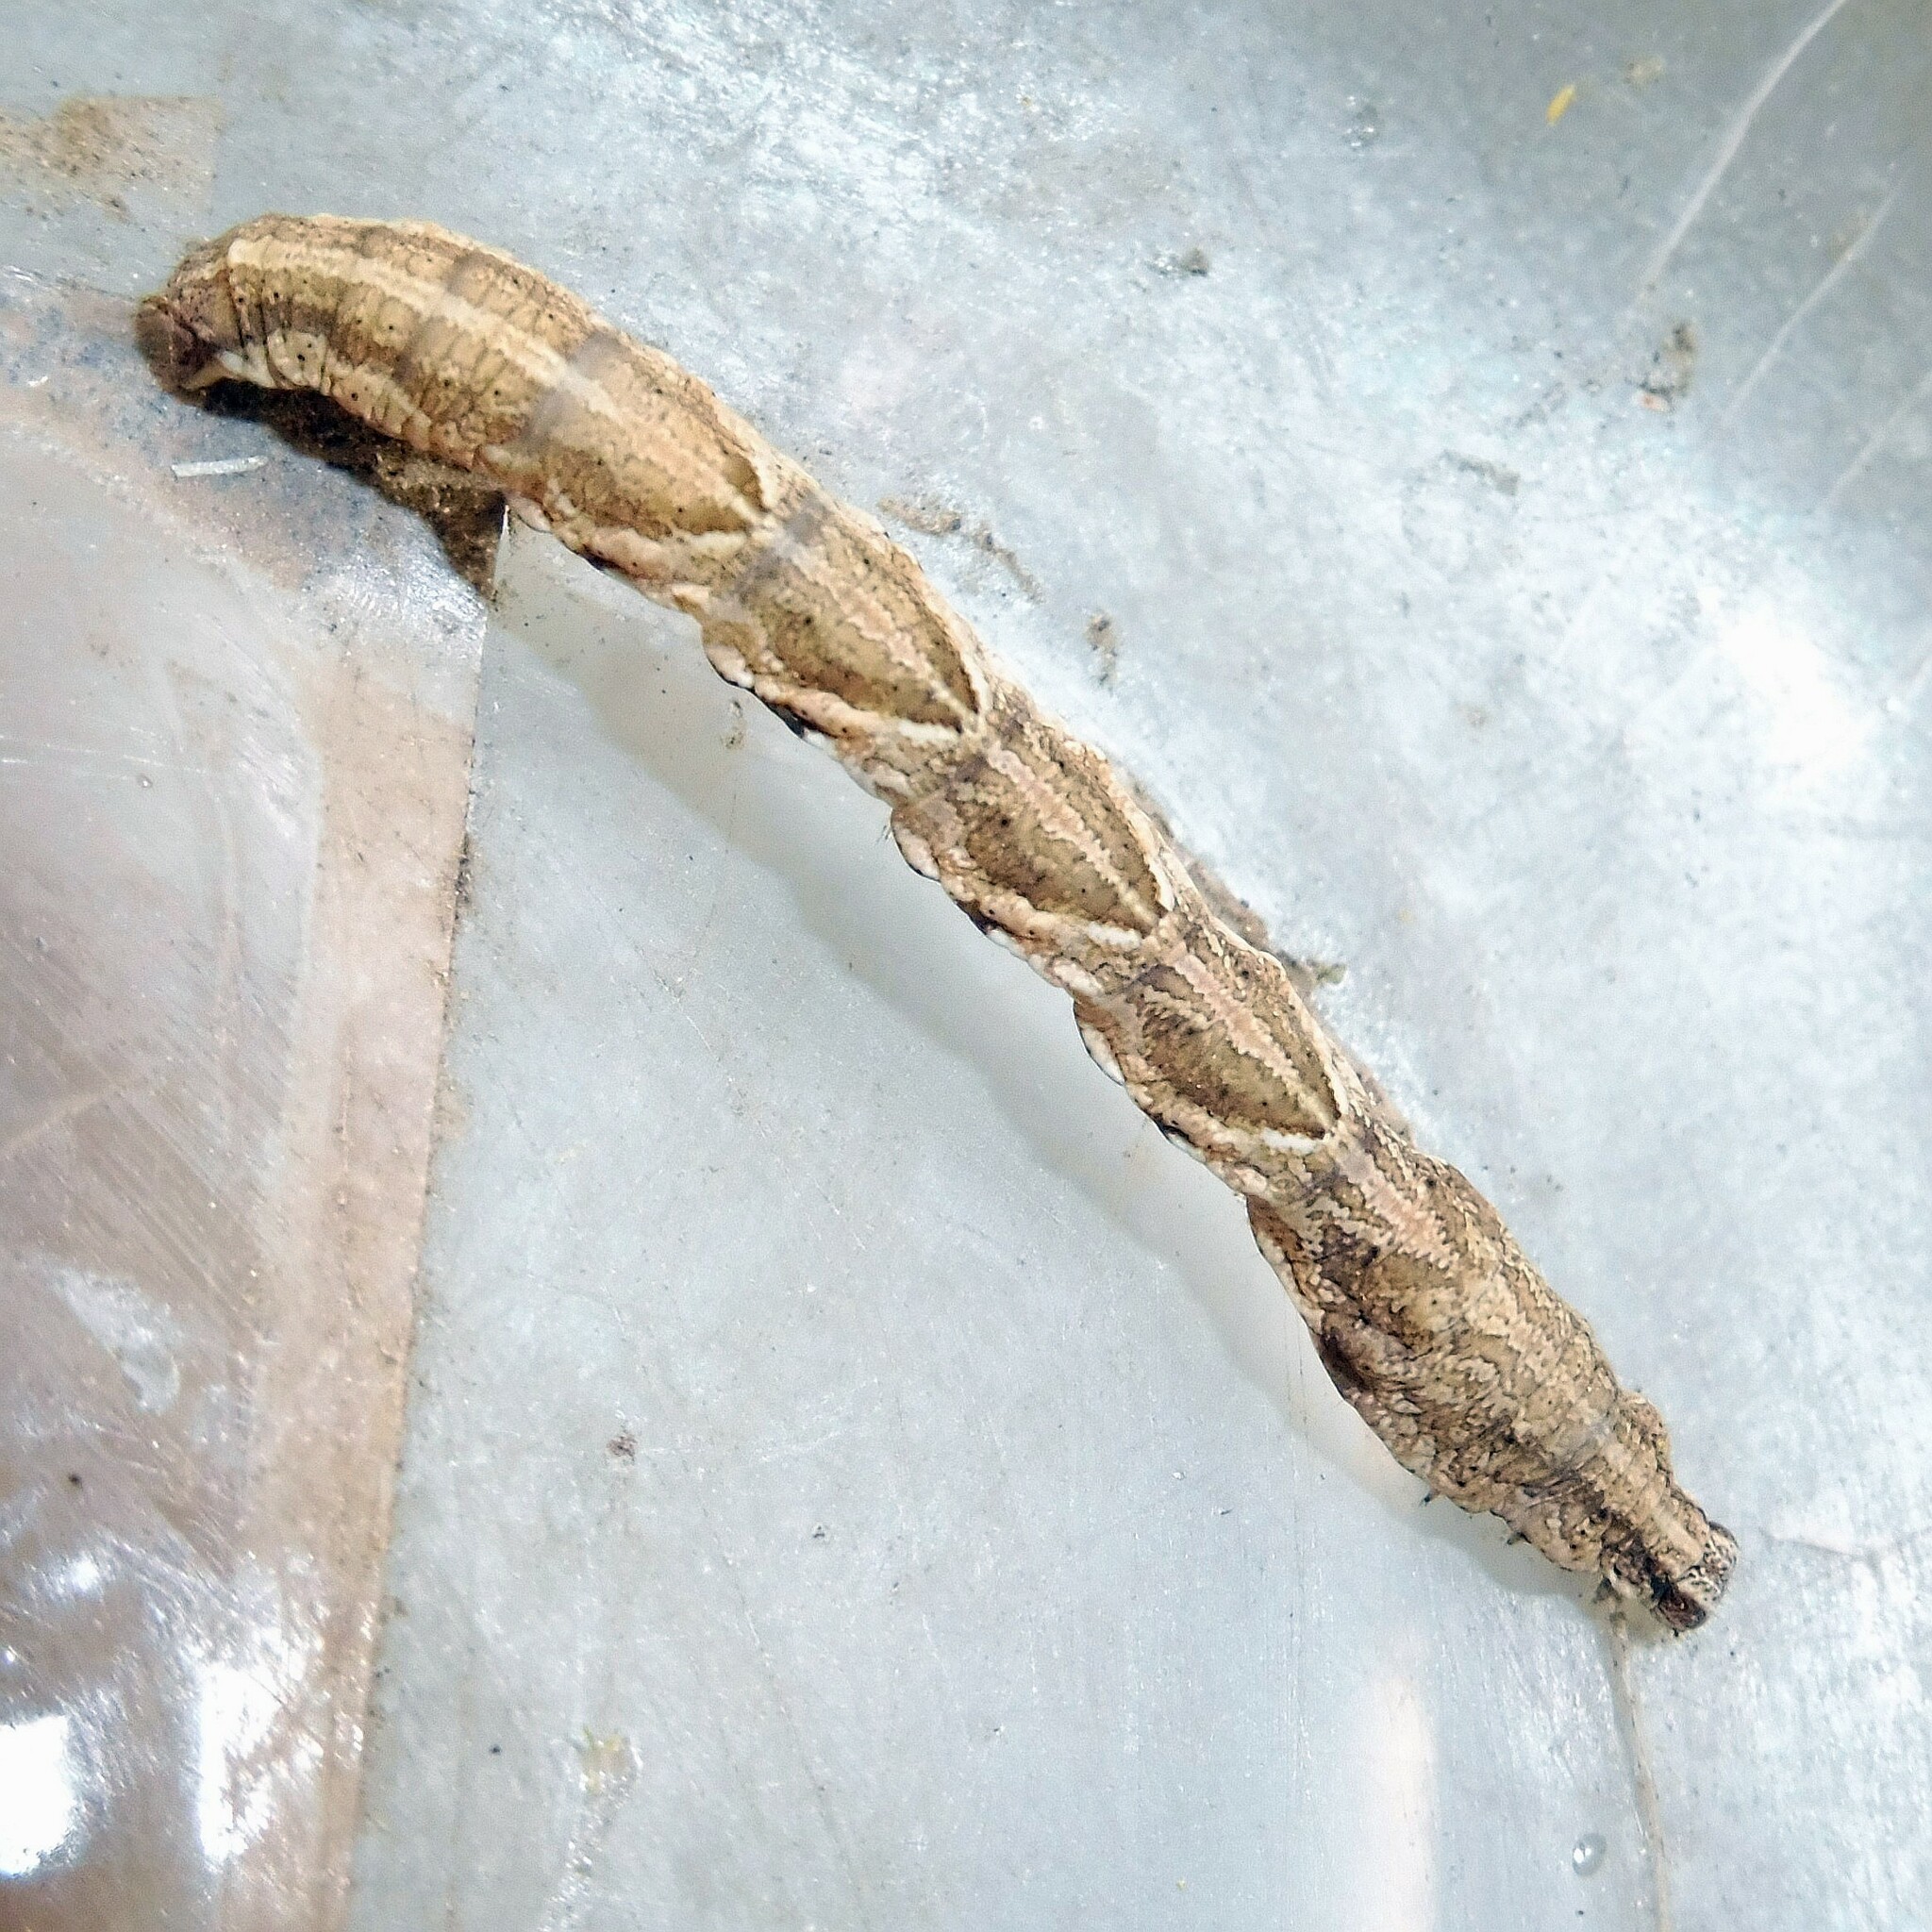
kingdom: Animalia
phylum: Arthropoda
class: Insecta
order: Lepidoptera
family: Geometridae
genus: Timandra
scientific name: Timandra comae
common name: Blood-vein
